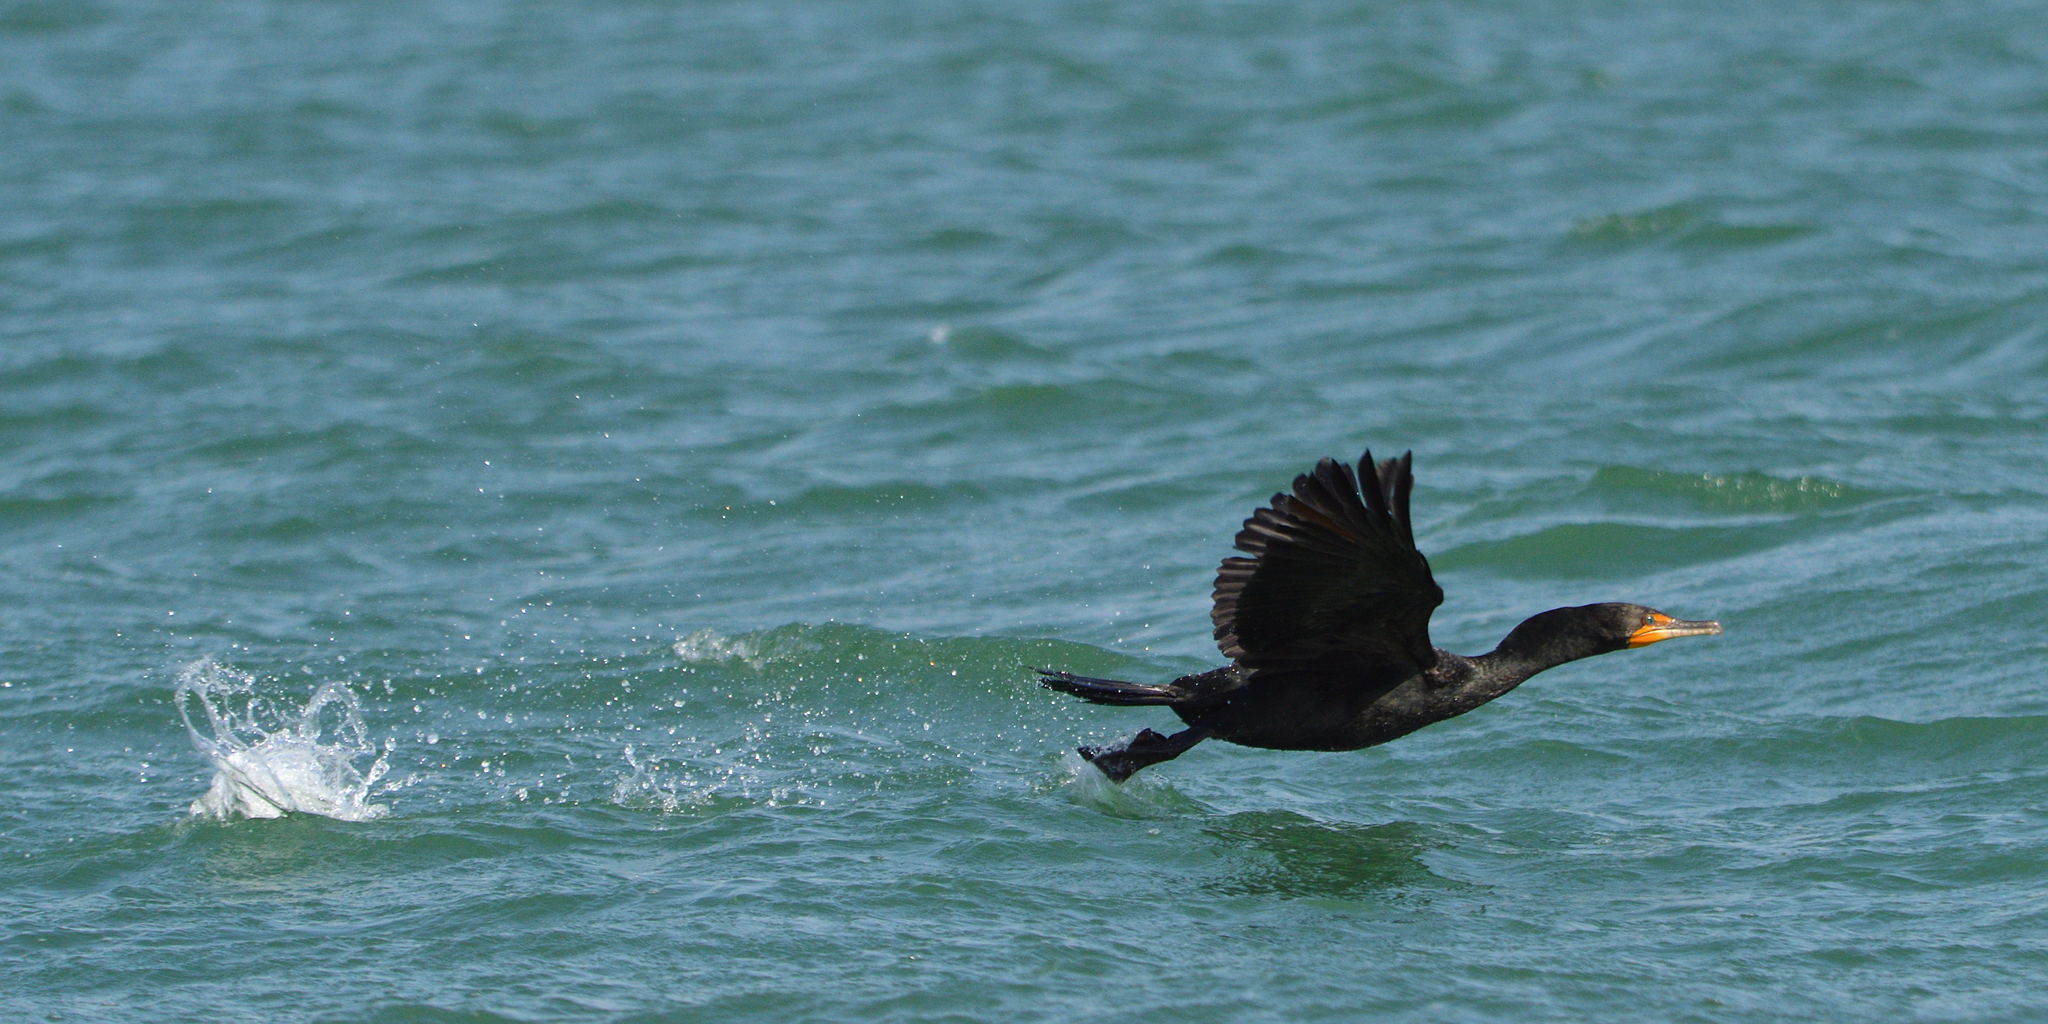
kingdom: Animalia
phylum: Chordata
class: Aves
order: Suliformes
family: Phalacrocoracidae
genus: Phalacrocorax
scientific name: Phalacrocorax auritus
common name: Double-crested cormorant
